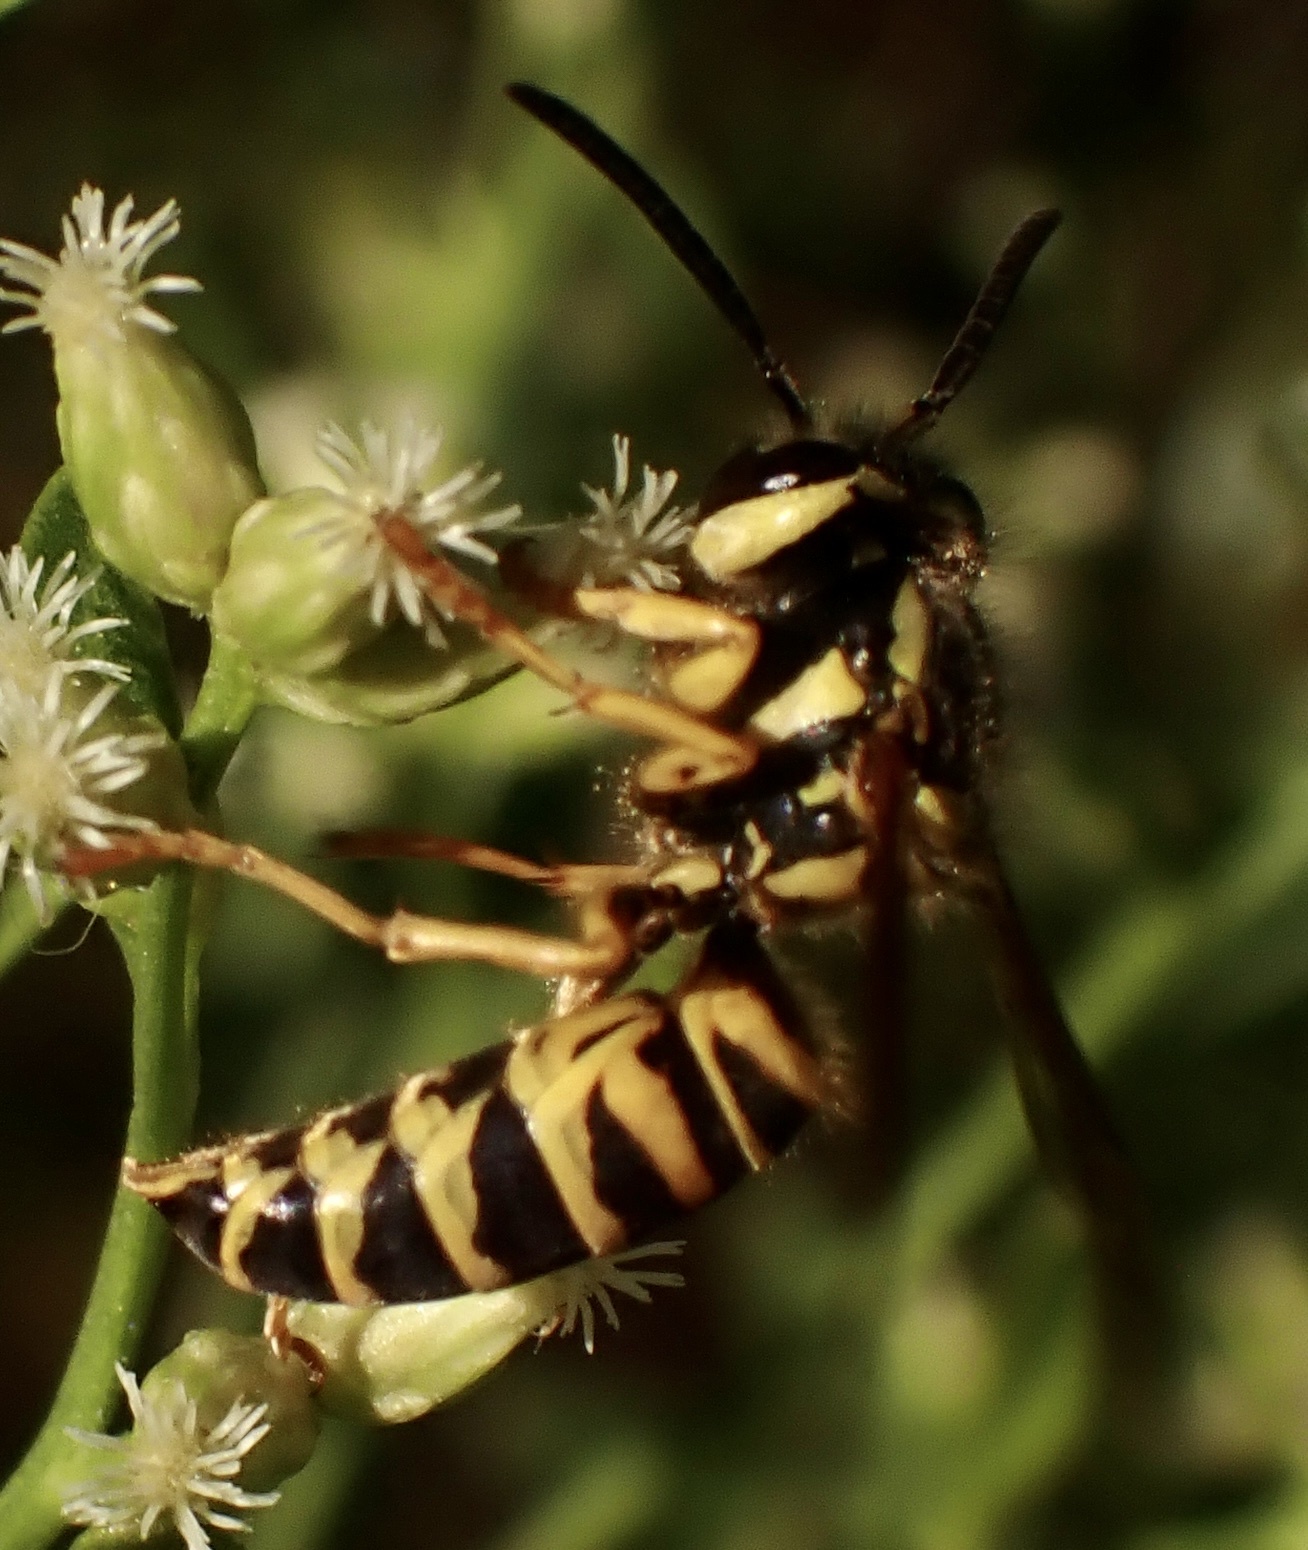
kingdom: Animalia
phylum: Arthropoda
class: Insecta
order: Hymenoptera
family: Vespidae
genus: Vespula
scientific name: Vespula squamosa
